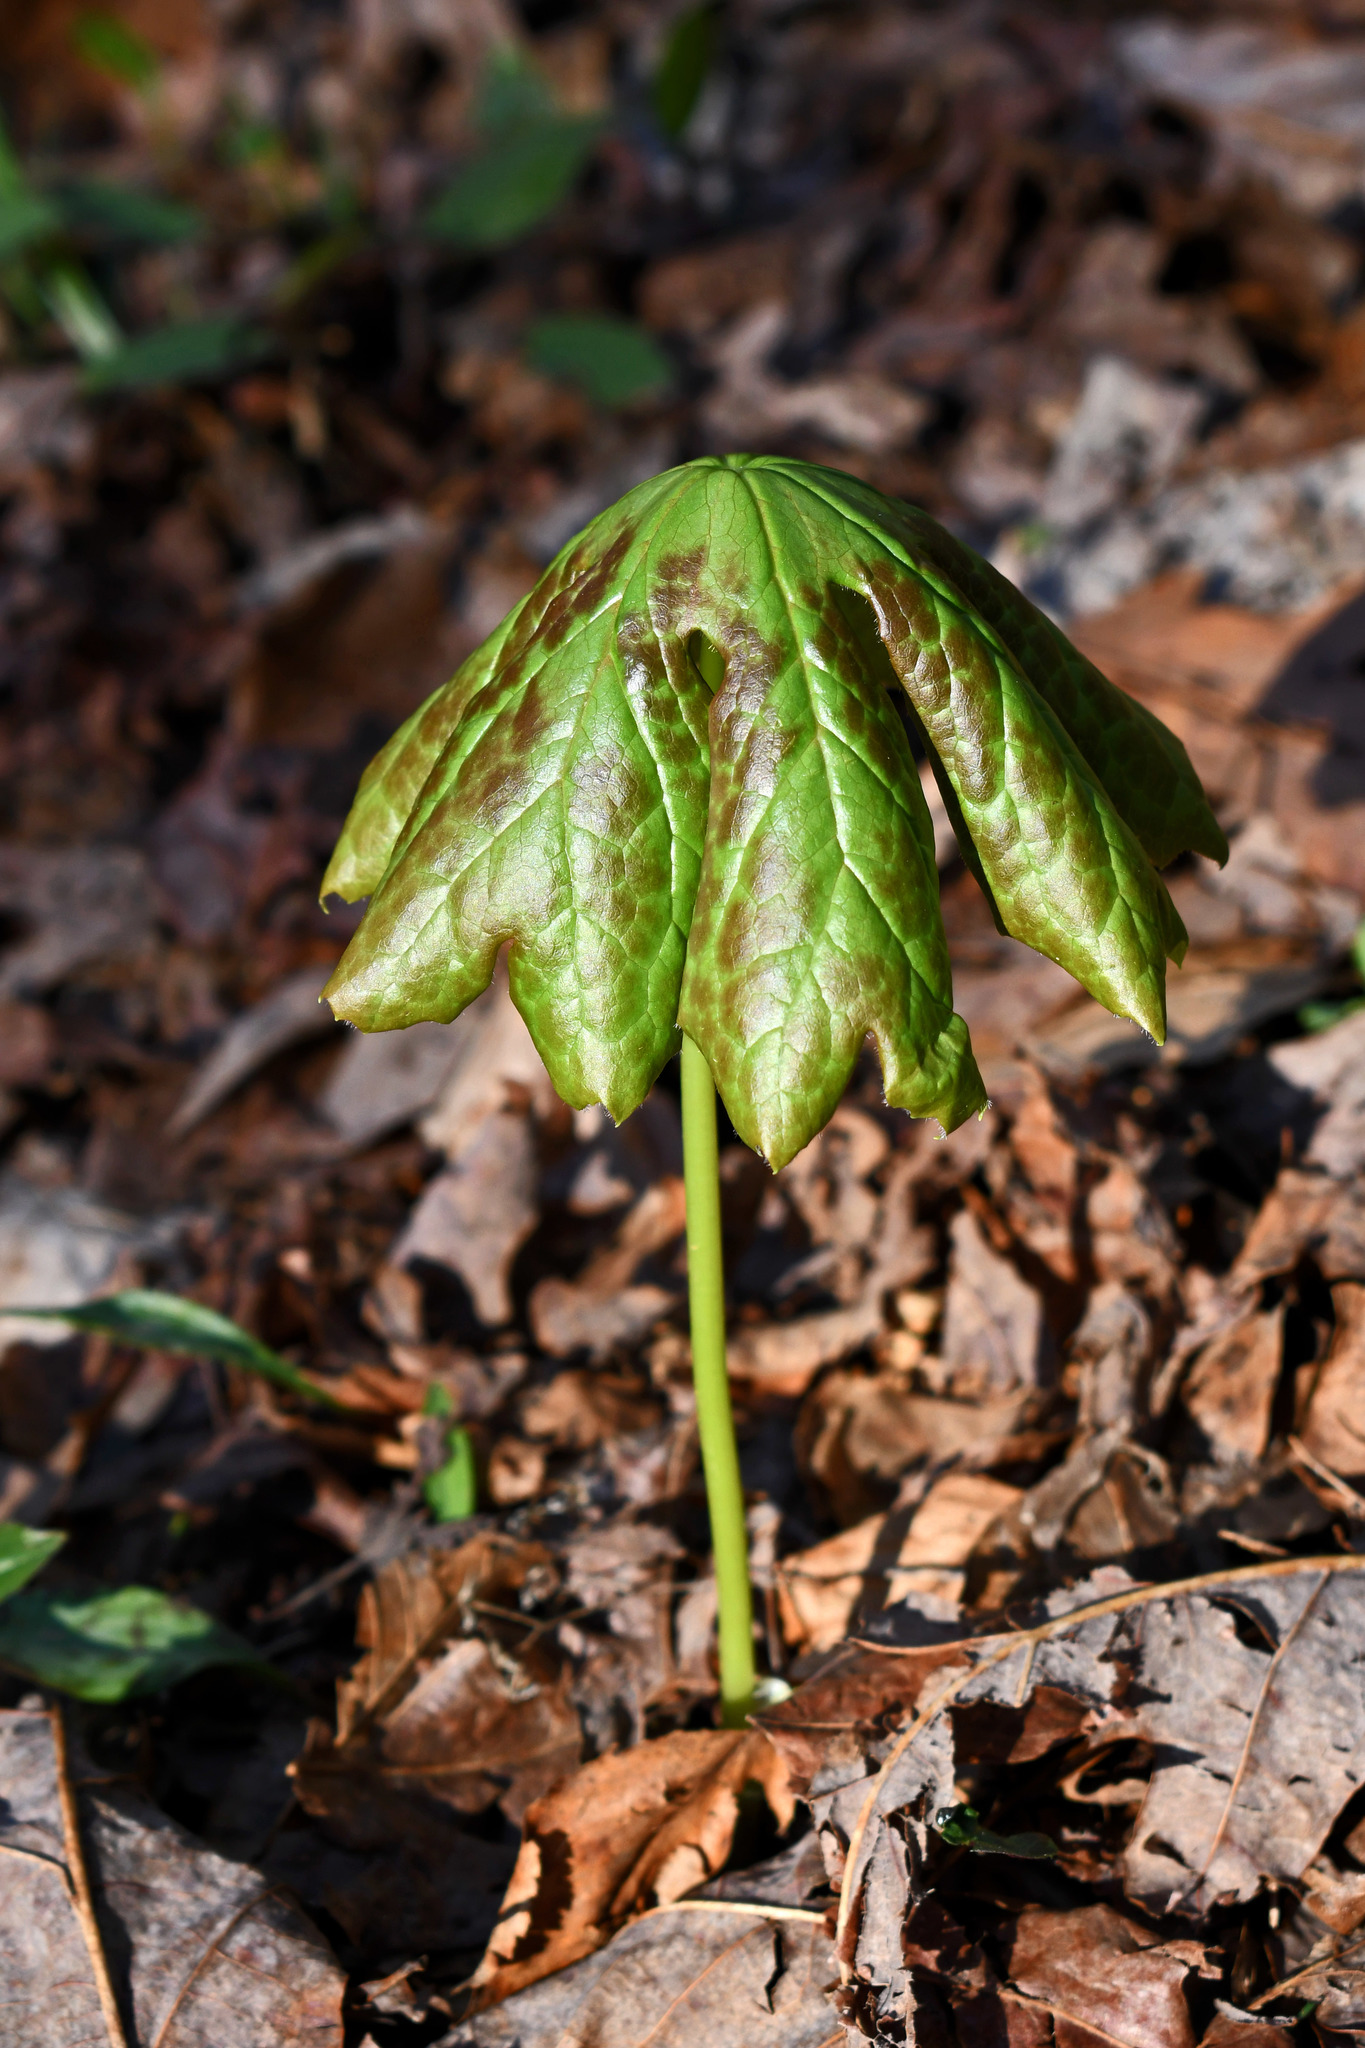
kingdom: Plantae
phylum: Tracheophyta
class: Magnoliopsida
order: Ranunculales
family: Berberidaceae
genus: Podophyllum
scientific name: Podophyllum peltatum
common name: Wild mandrake
